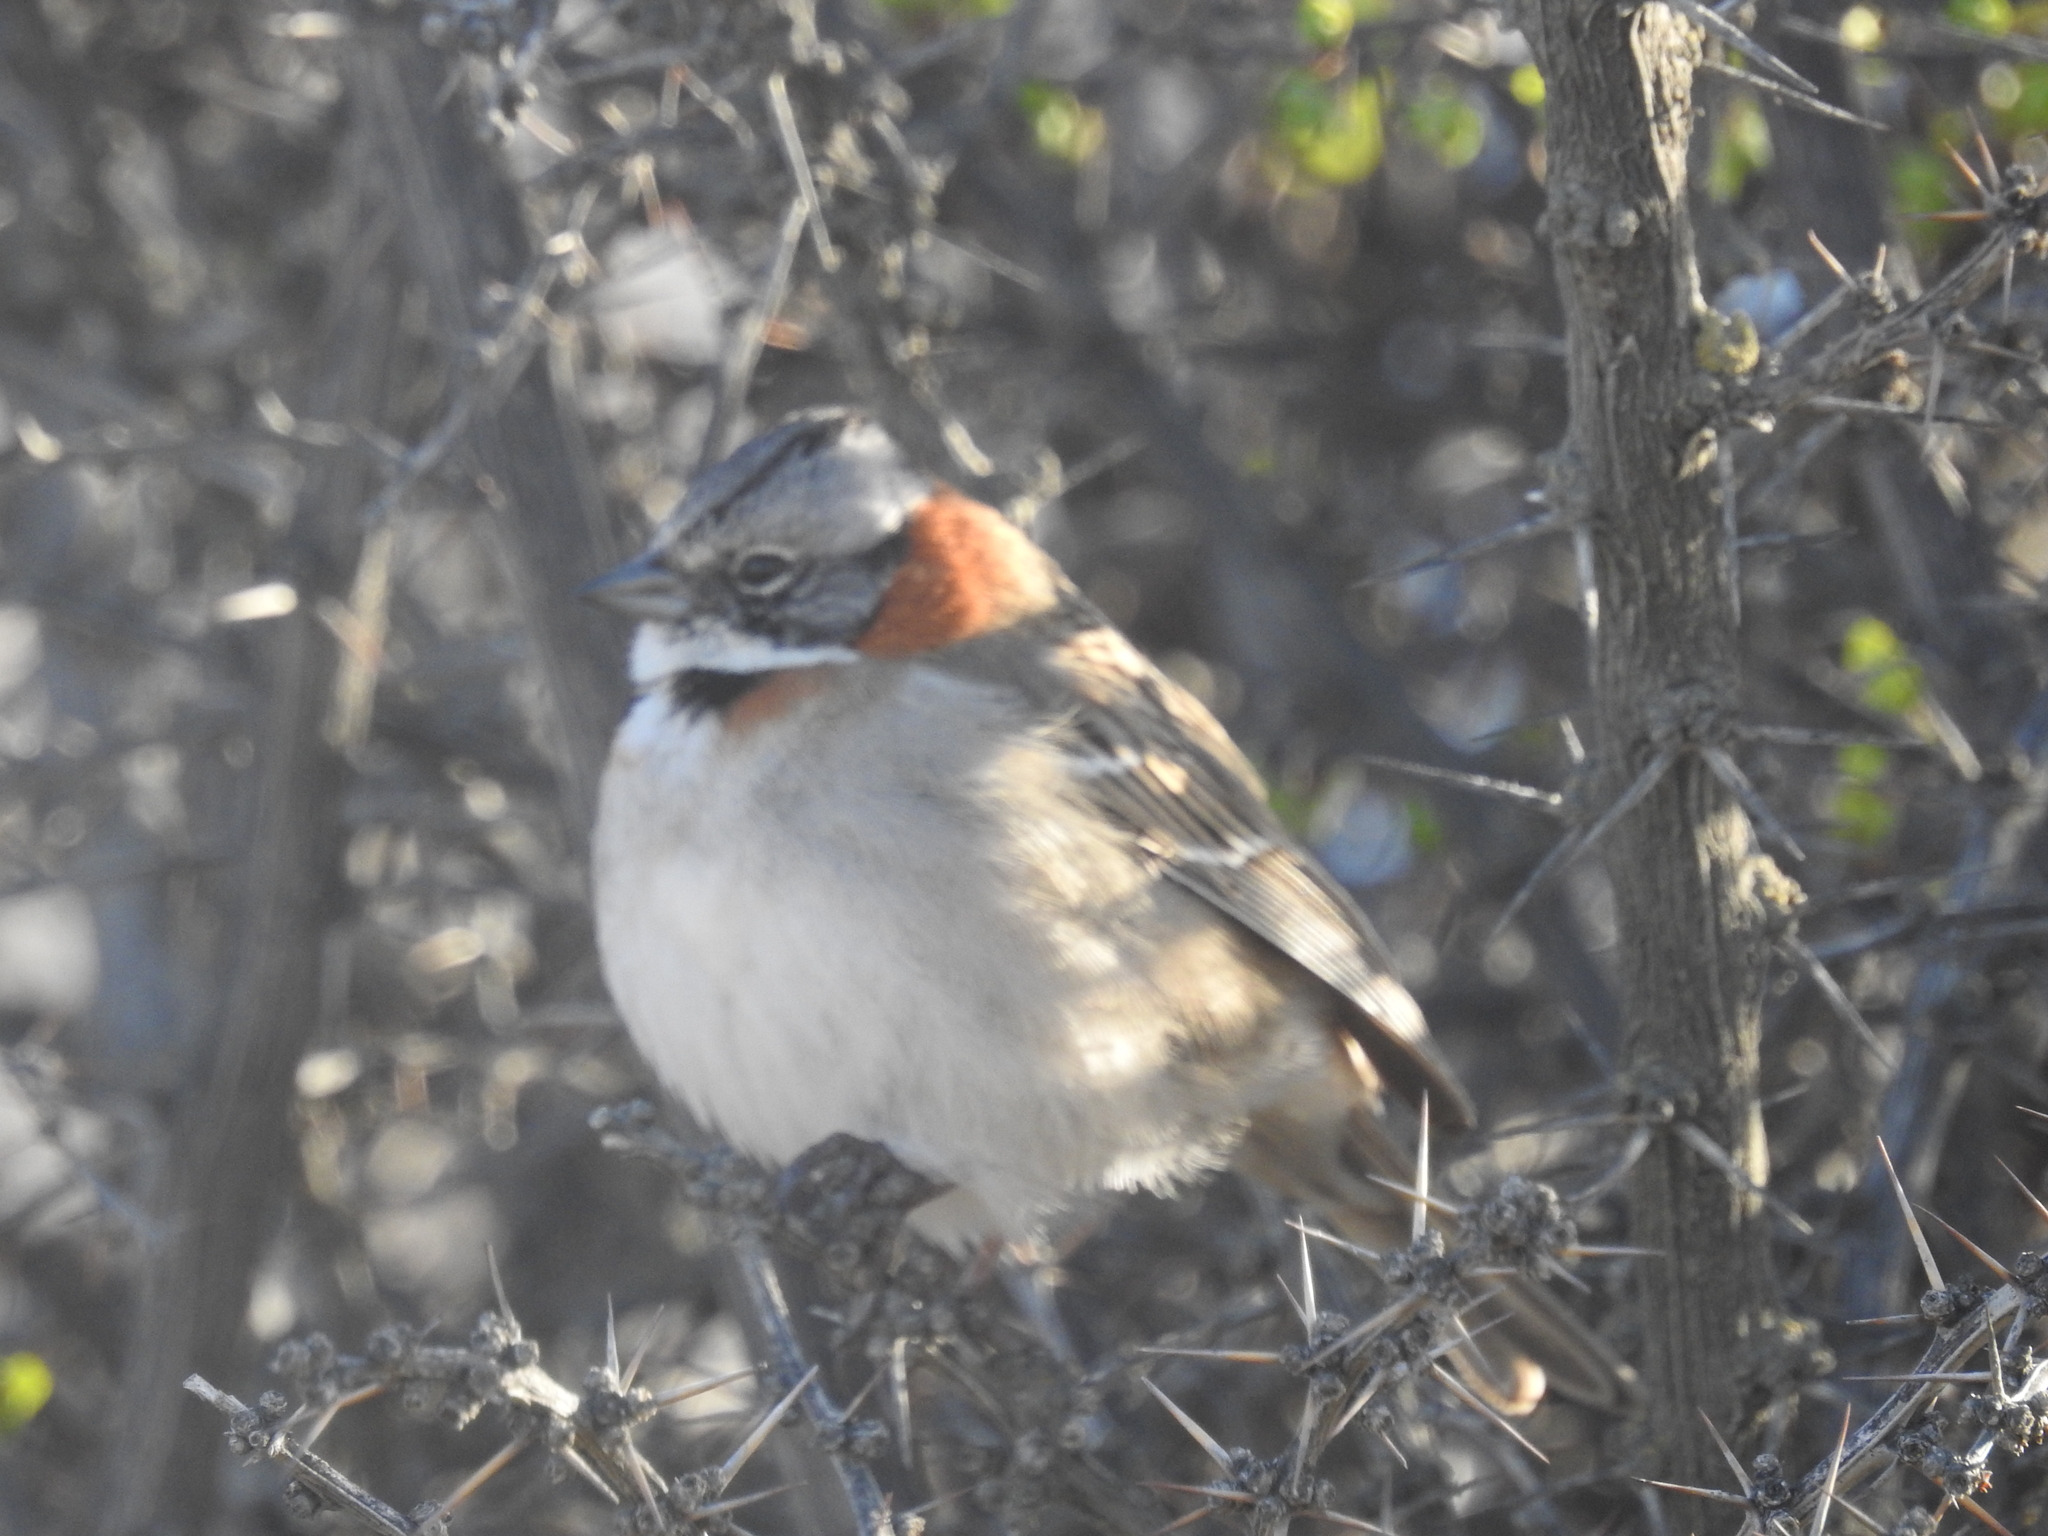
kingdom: Animalia
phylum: Chordata
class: Aves
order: Passeriformes
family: Passerellidae
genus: Zonotrichia
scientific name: Zonotrichia capensis
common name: Rufous-collared sparrow
